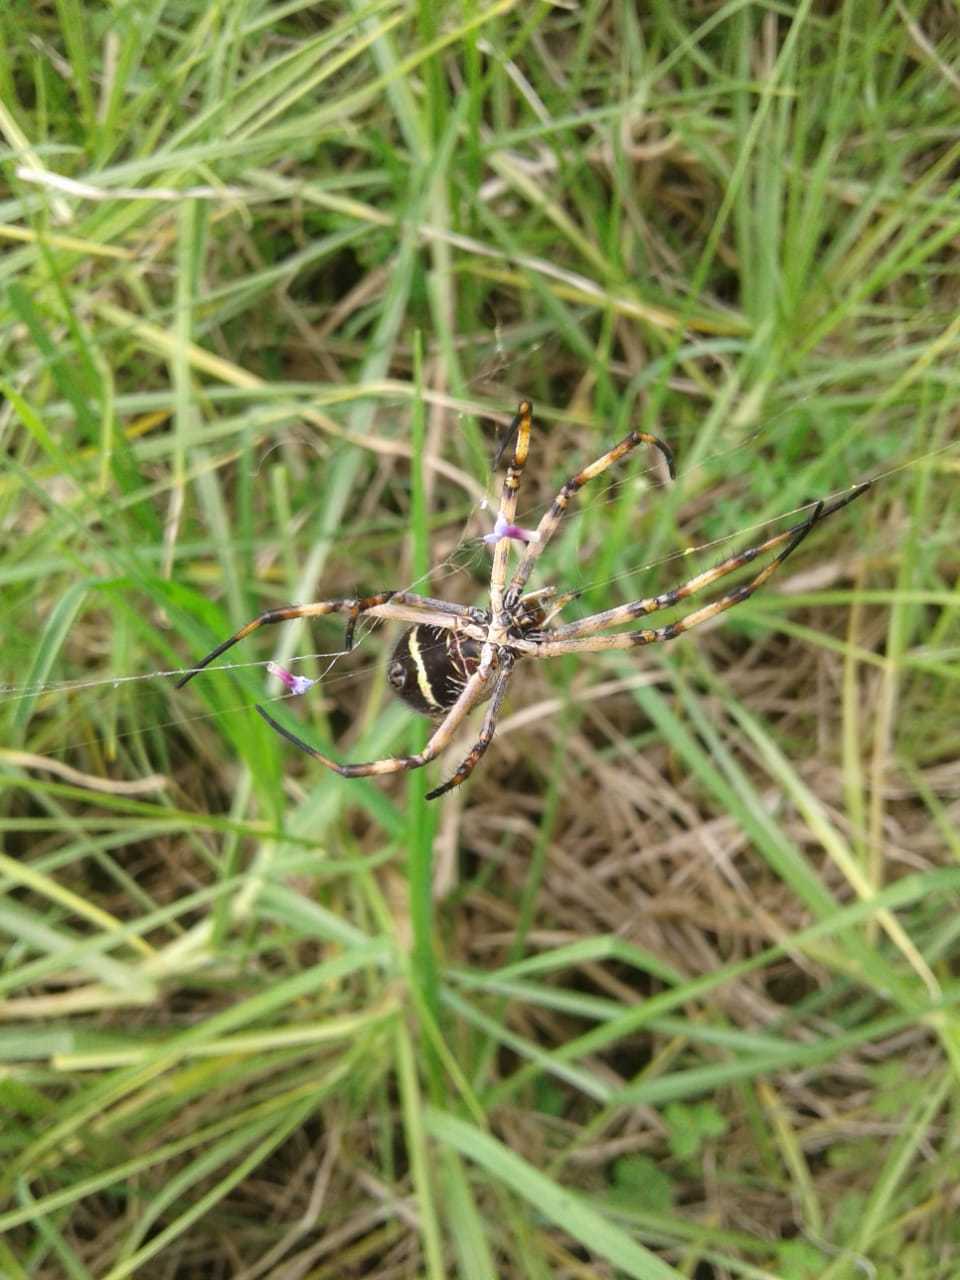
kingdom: Animalia
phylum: Arthropoda
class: Arachnida
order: Araneae
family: Araneidae
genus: Argiope
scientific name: Argiope argentata
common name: Orb weavers
